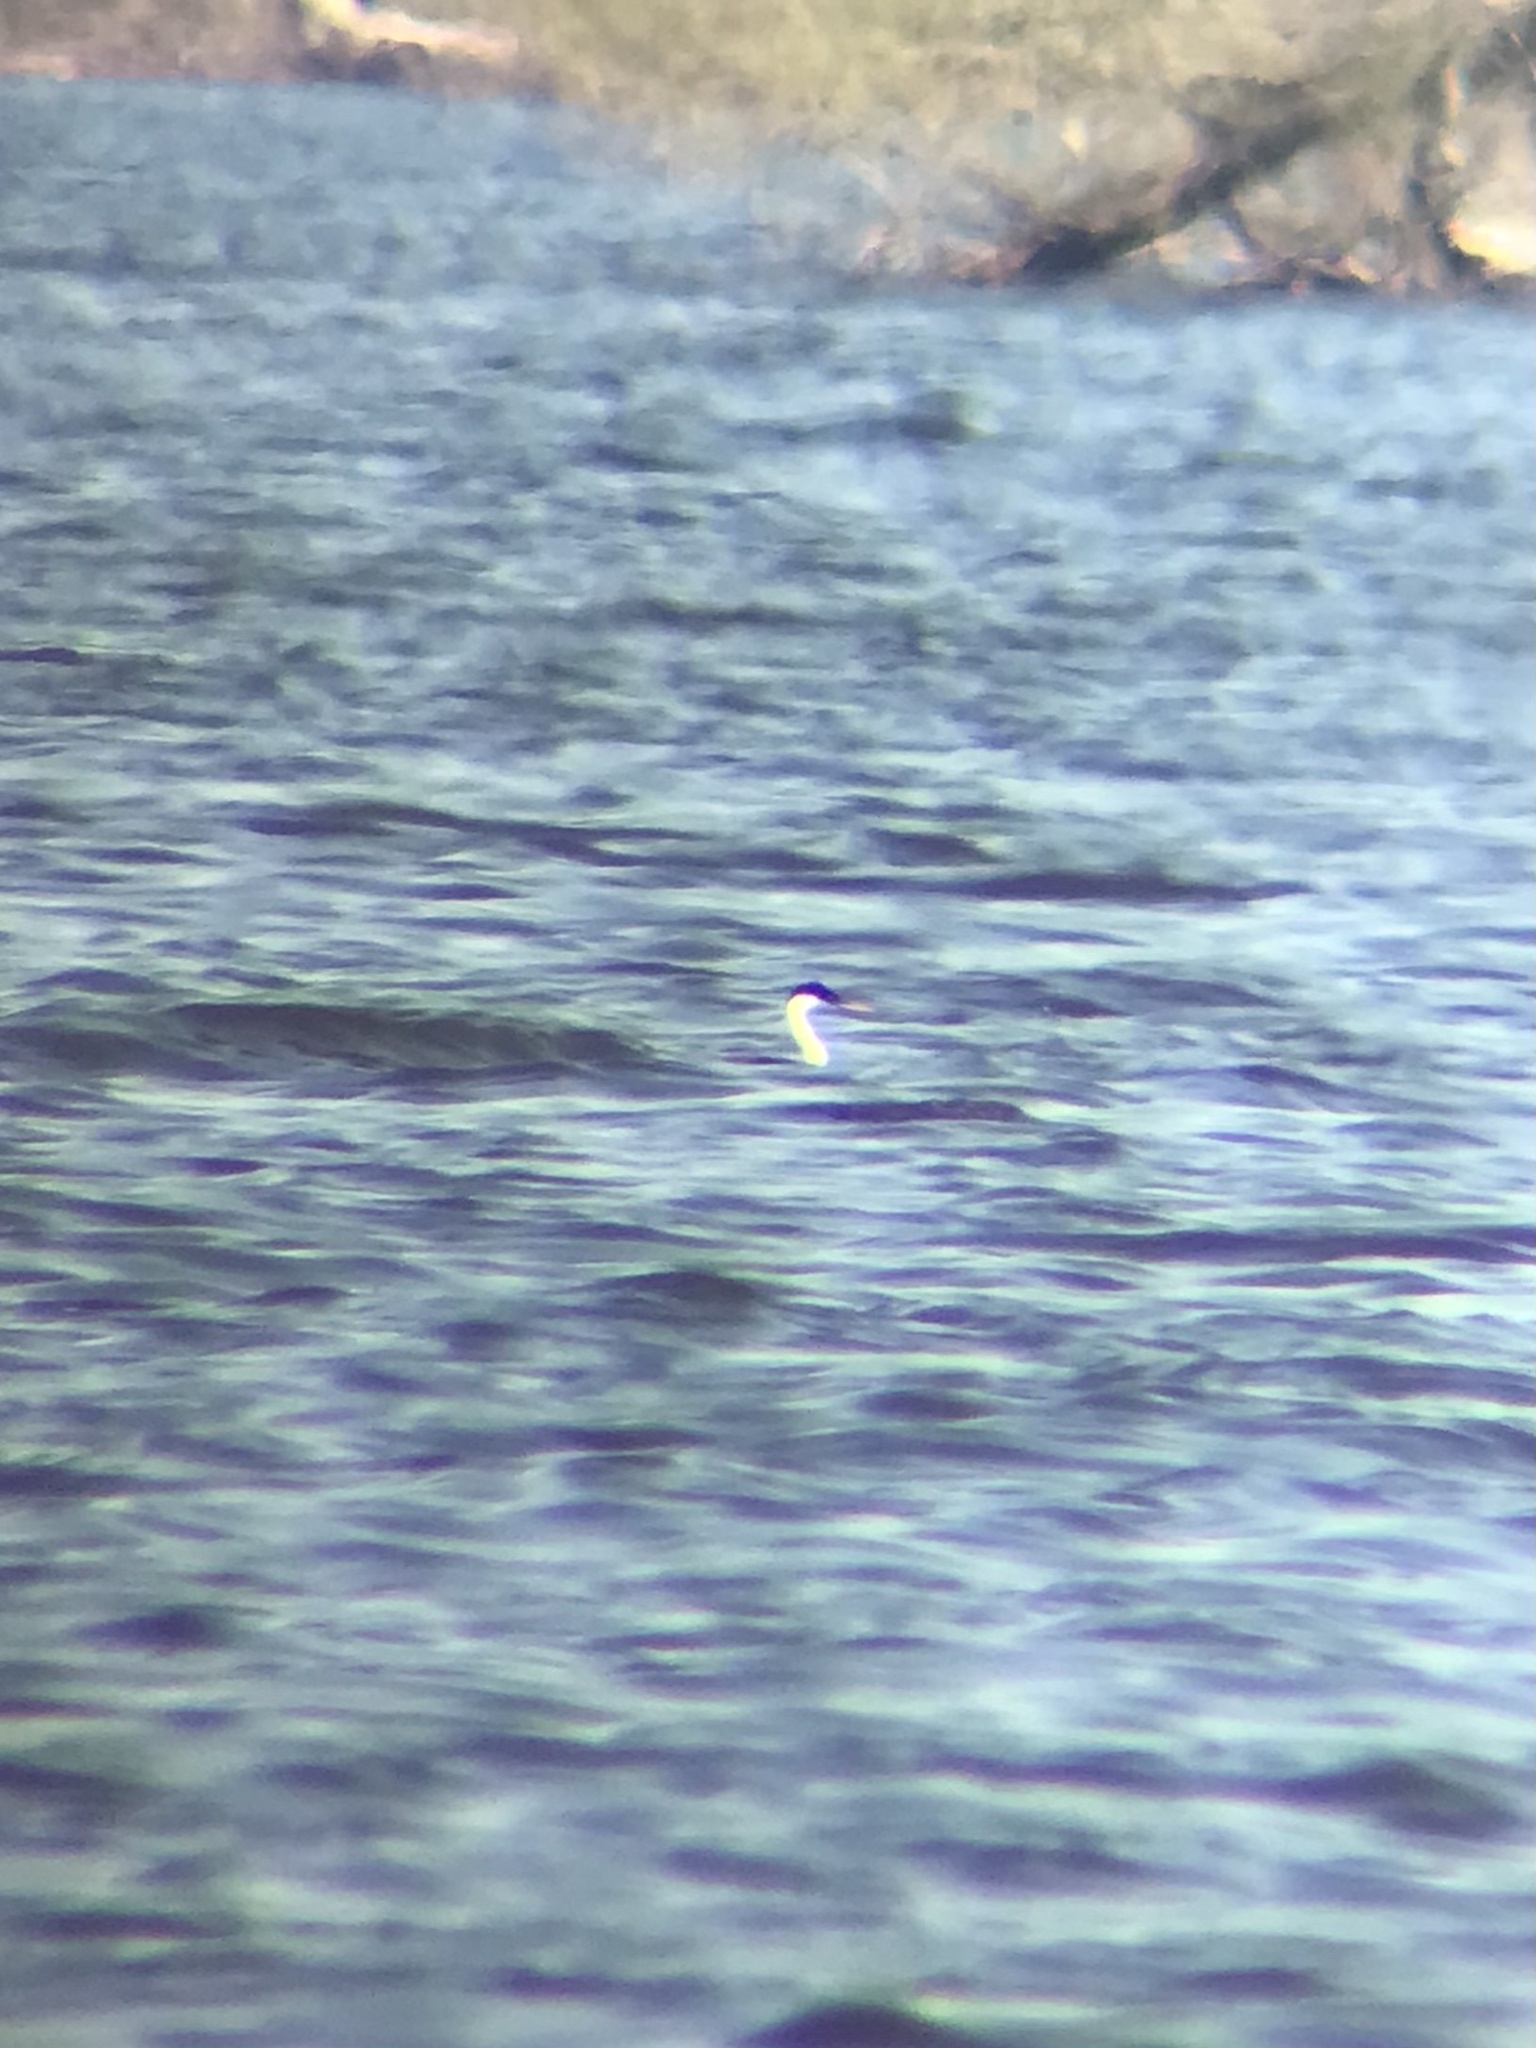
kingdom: Animalia
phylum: Chordata
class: Aves
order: Podicipediformes
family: Podicipedidae
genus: Aechmophorus
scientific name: Aechmophorus occidentalis
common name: Western grebe
